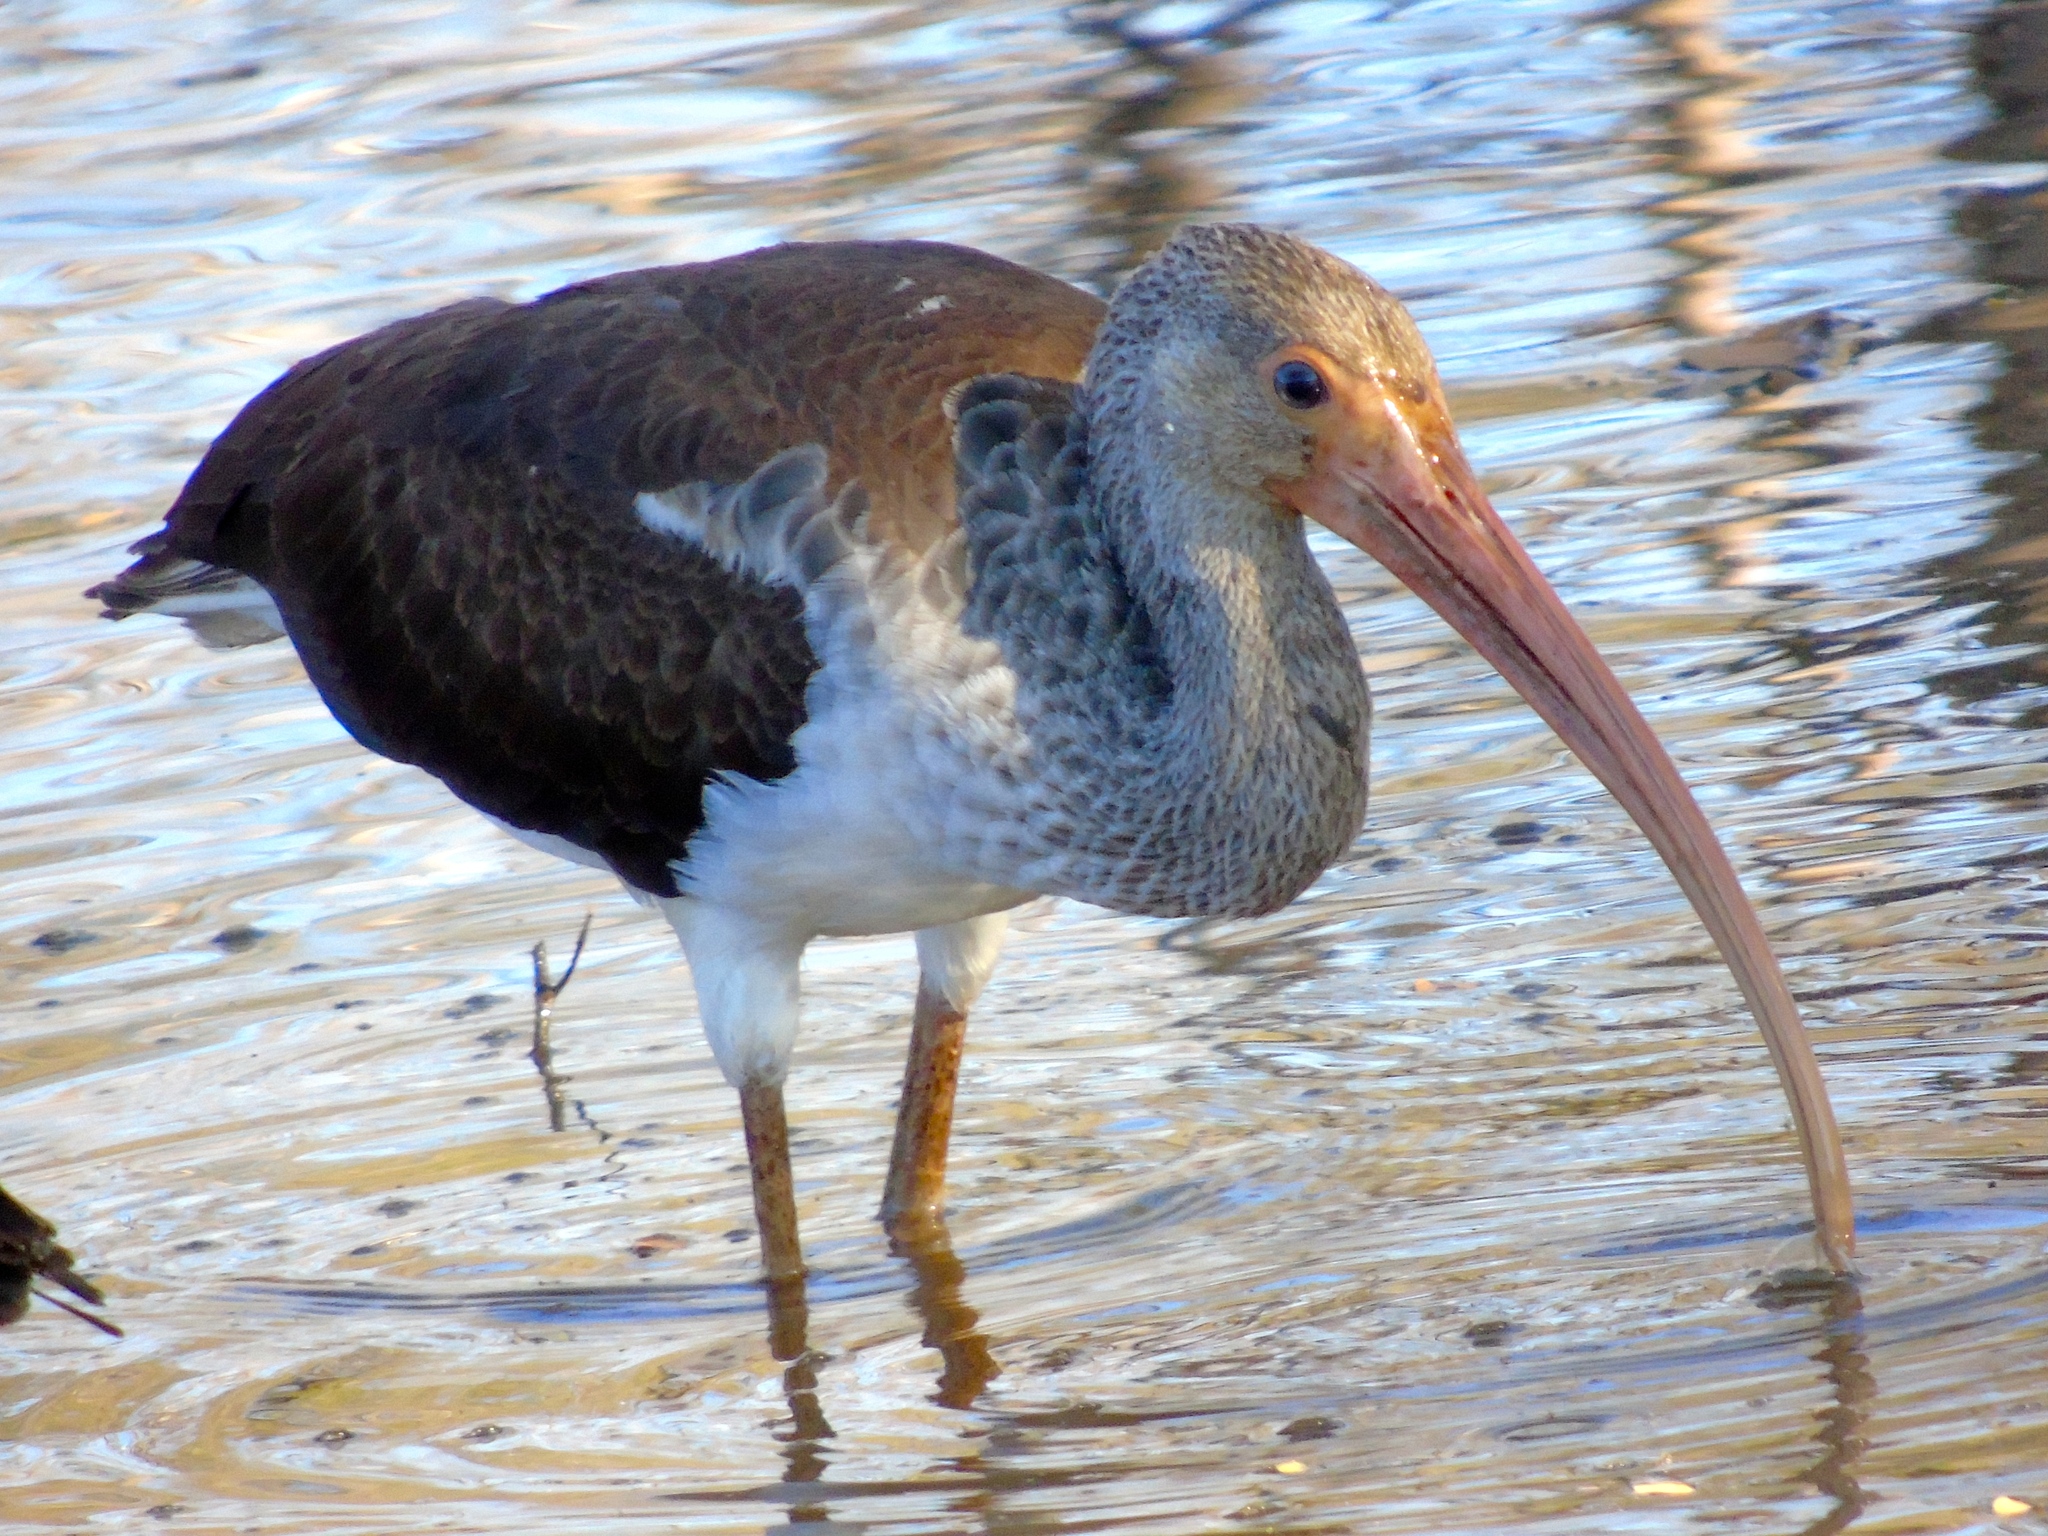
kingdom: Animalia
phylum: Chordata
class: Aves
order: Pelecaniformes
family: Threskiornithidae
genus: Eudocimus
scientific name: Eudocimus albus
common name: White ibis
